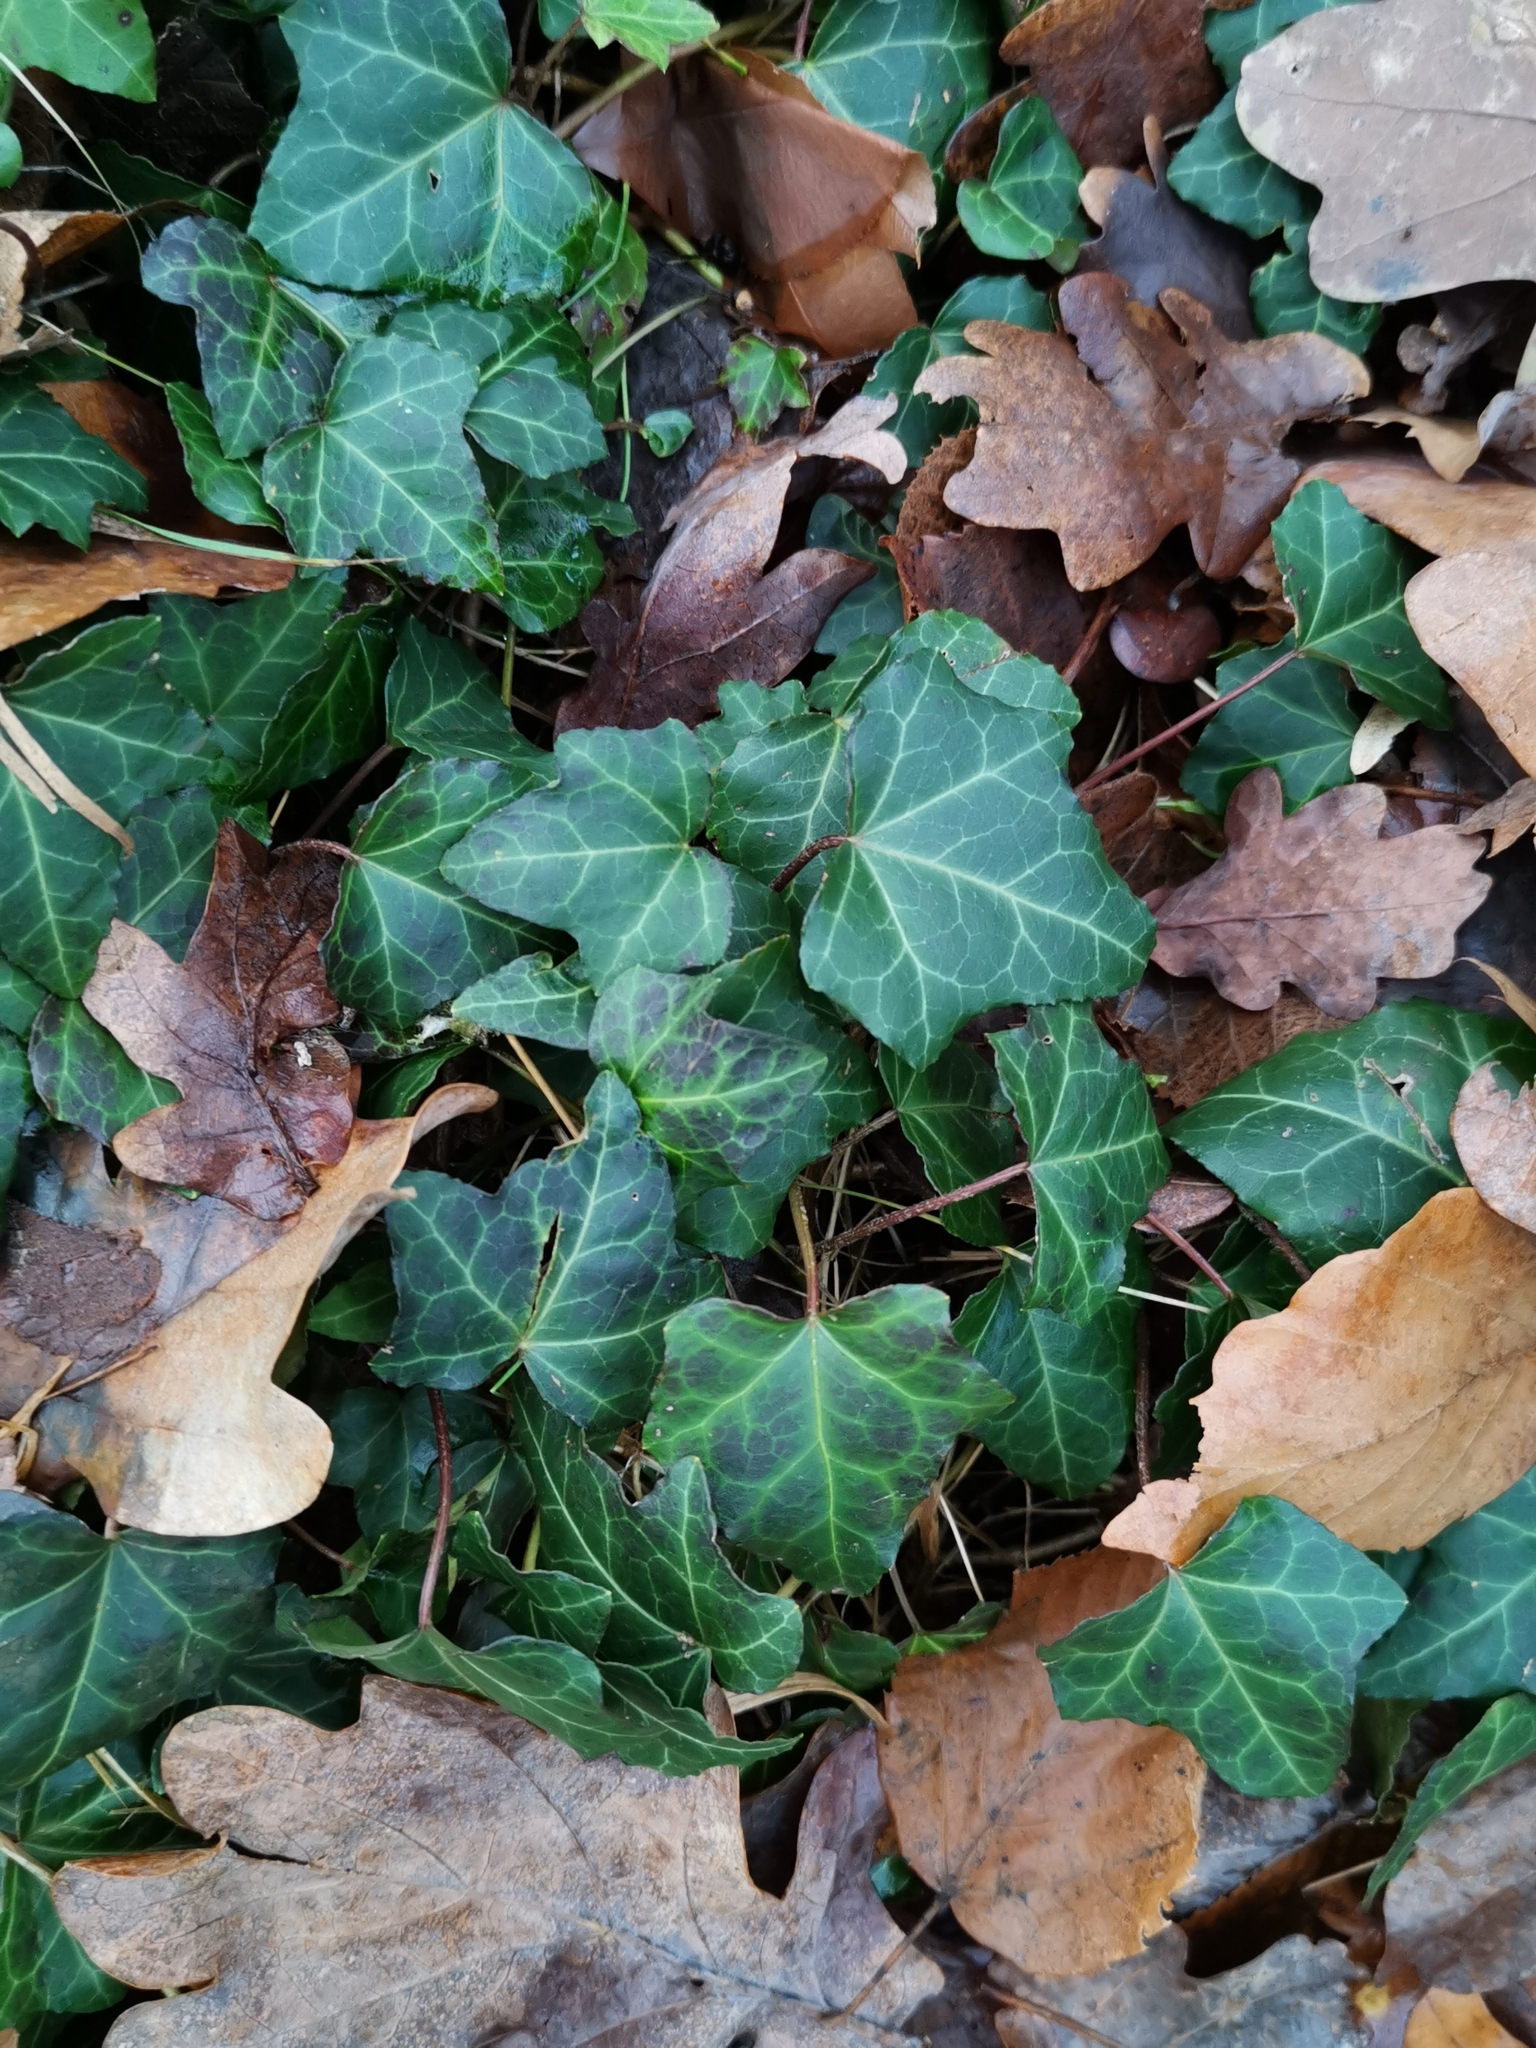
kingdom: Plantae
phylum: Tracheophyta
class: Magnoliopsida
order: Apiales
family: Araliaceae
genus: Hedera
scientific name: Hedera helix
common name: Ivy
